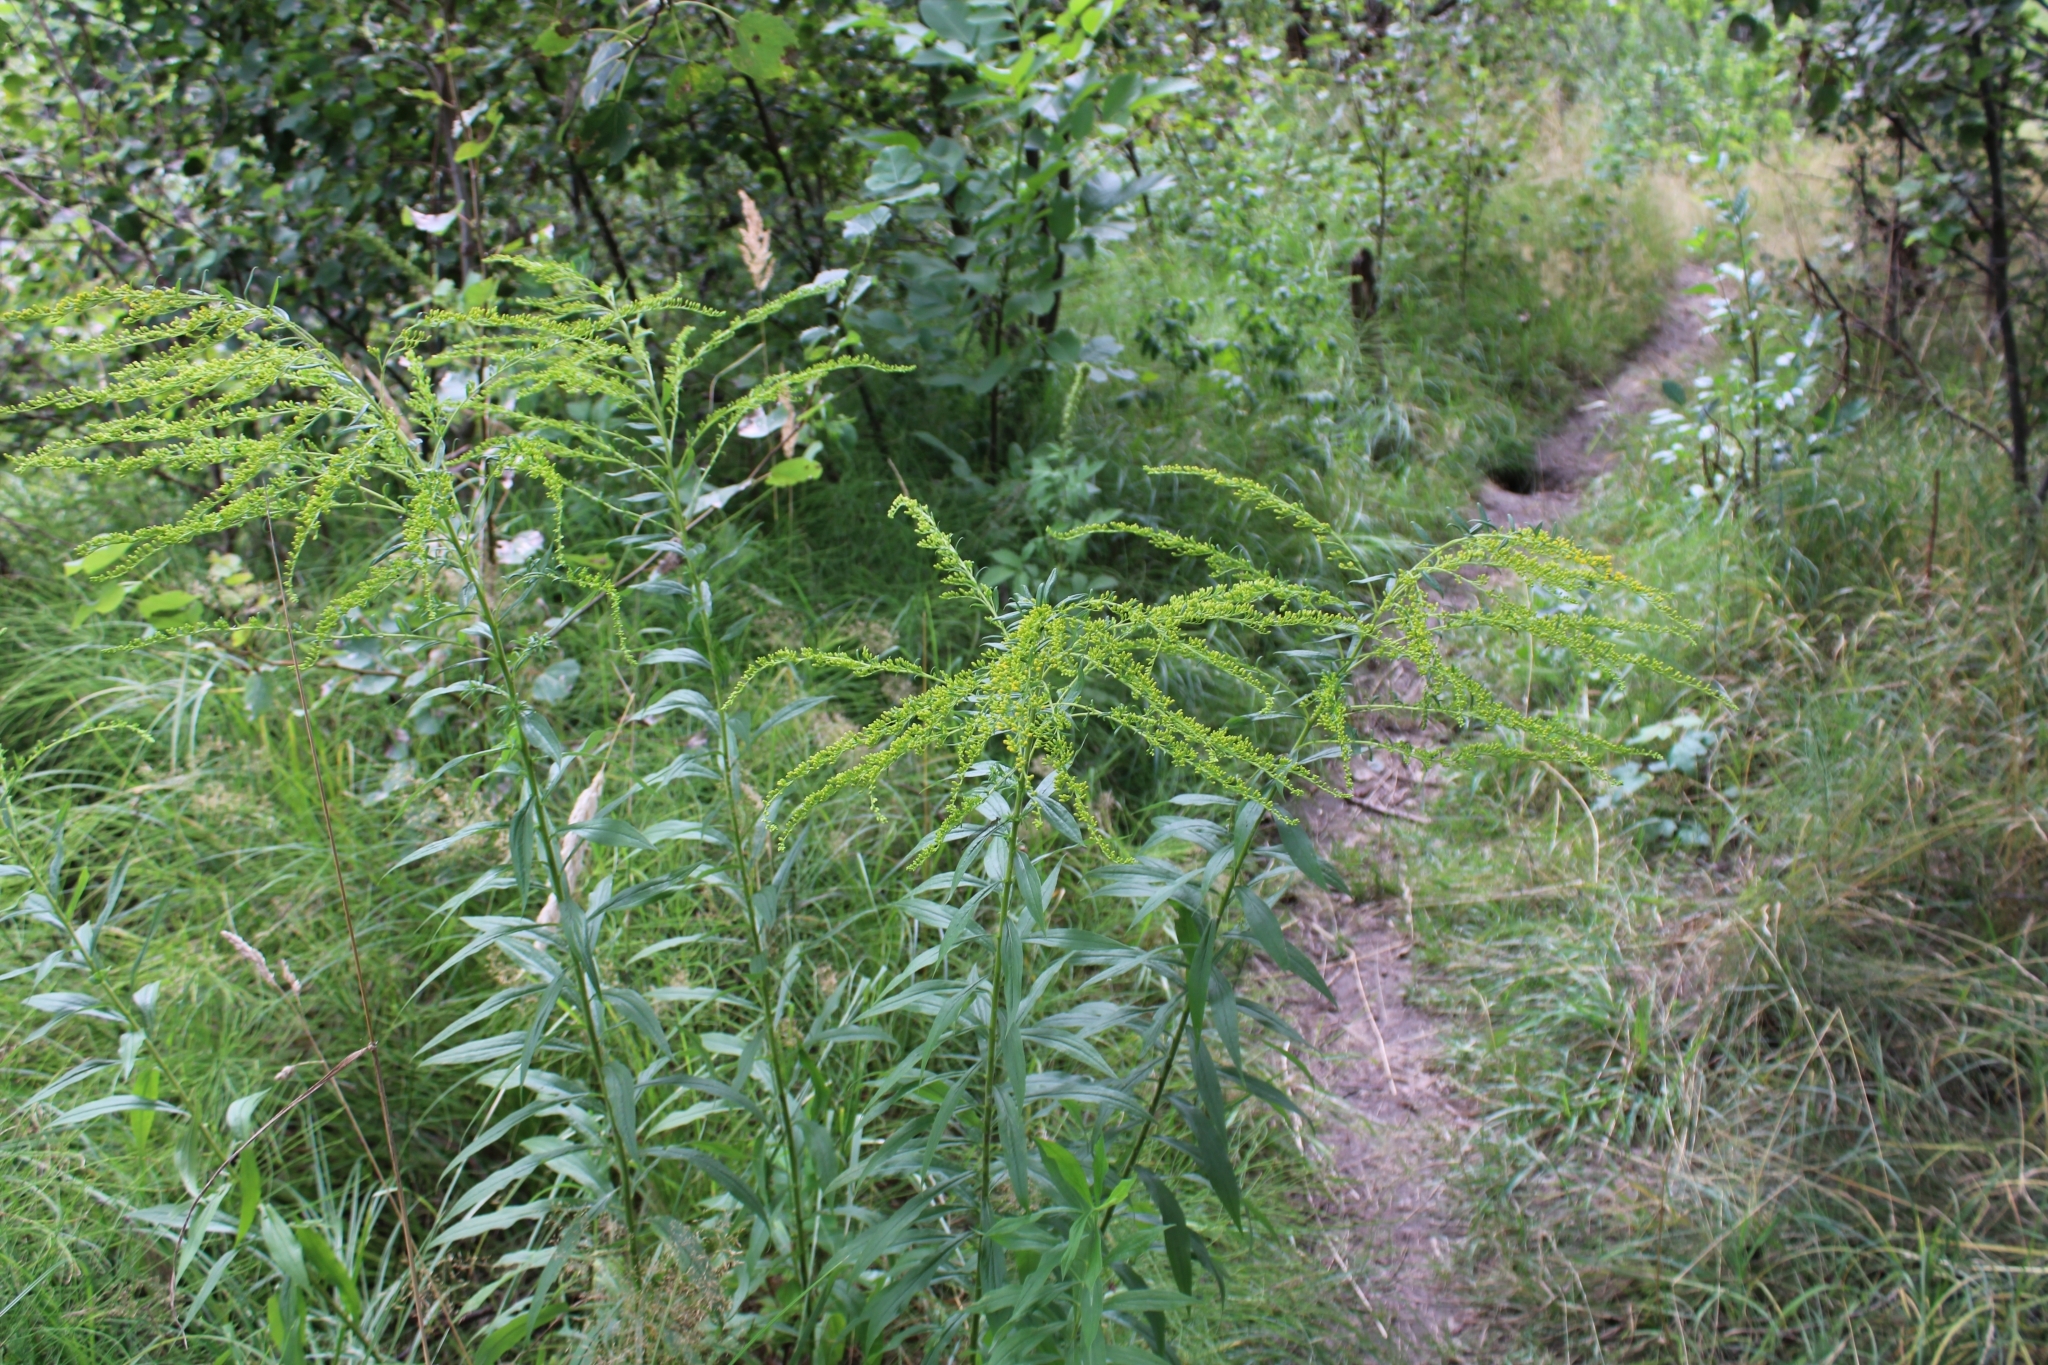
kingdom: Plantae
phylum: Tracheophyta
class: Magnoliopsida
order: Asterales
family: Asteraceae
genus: Solidago
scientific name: Solidago canadensis
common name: Canada goldenrod
